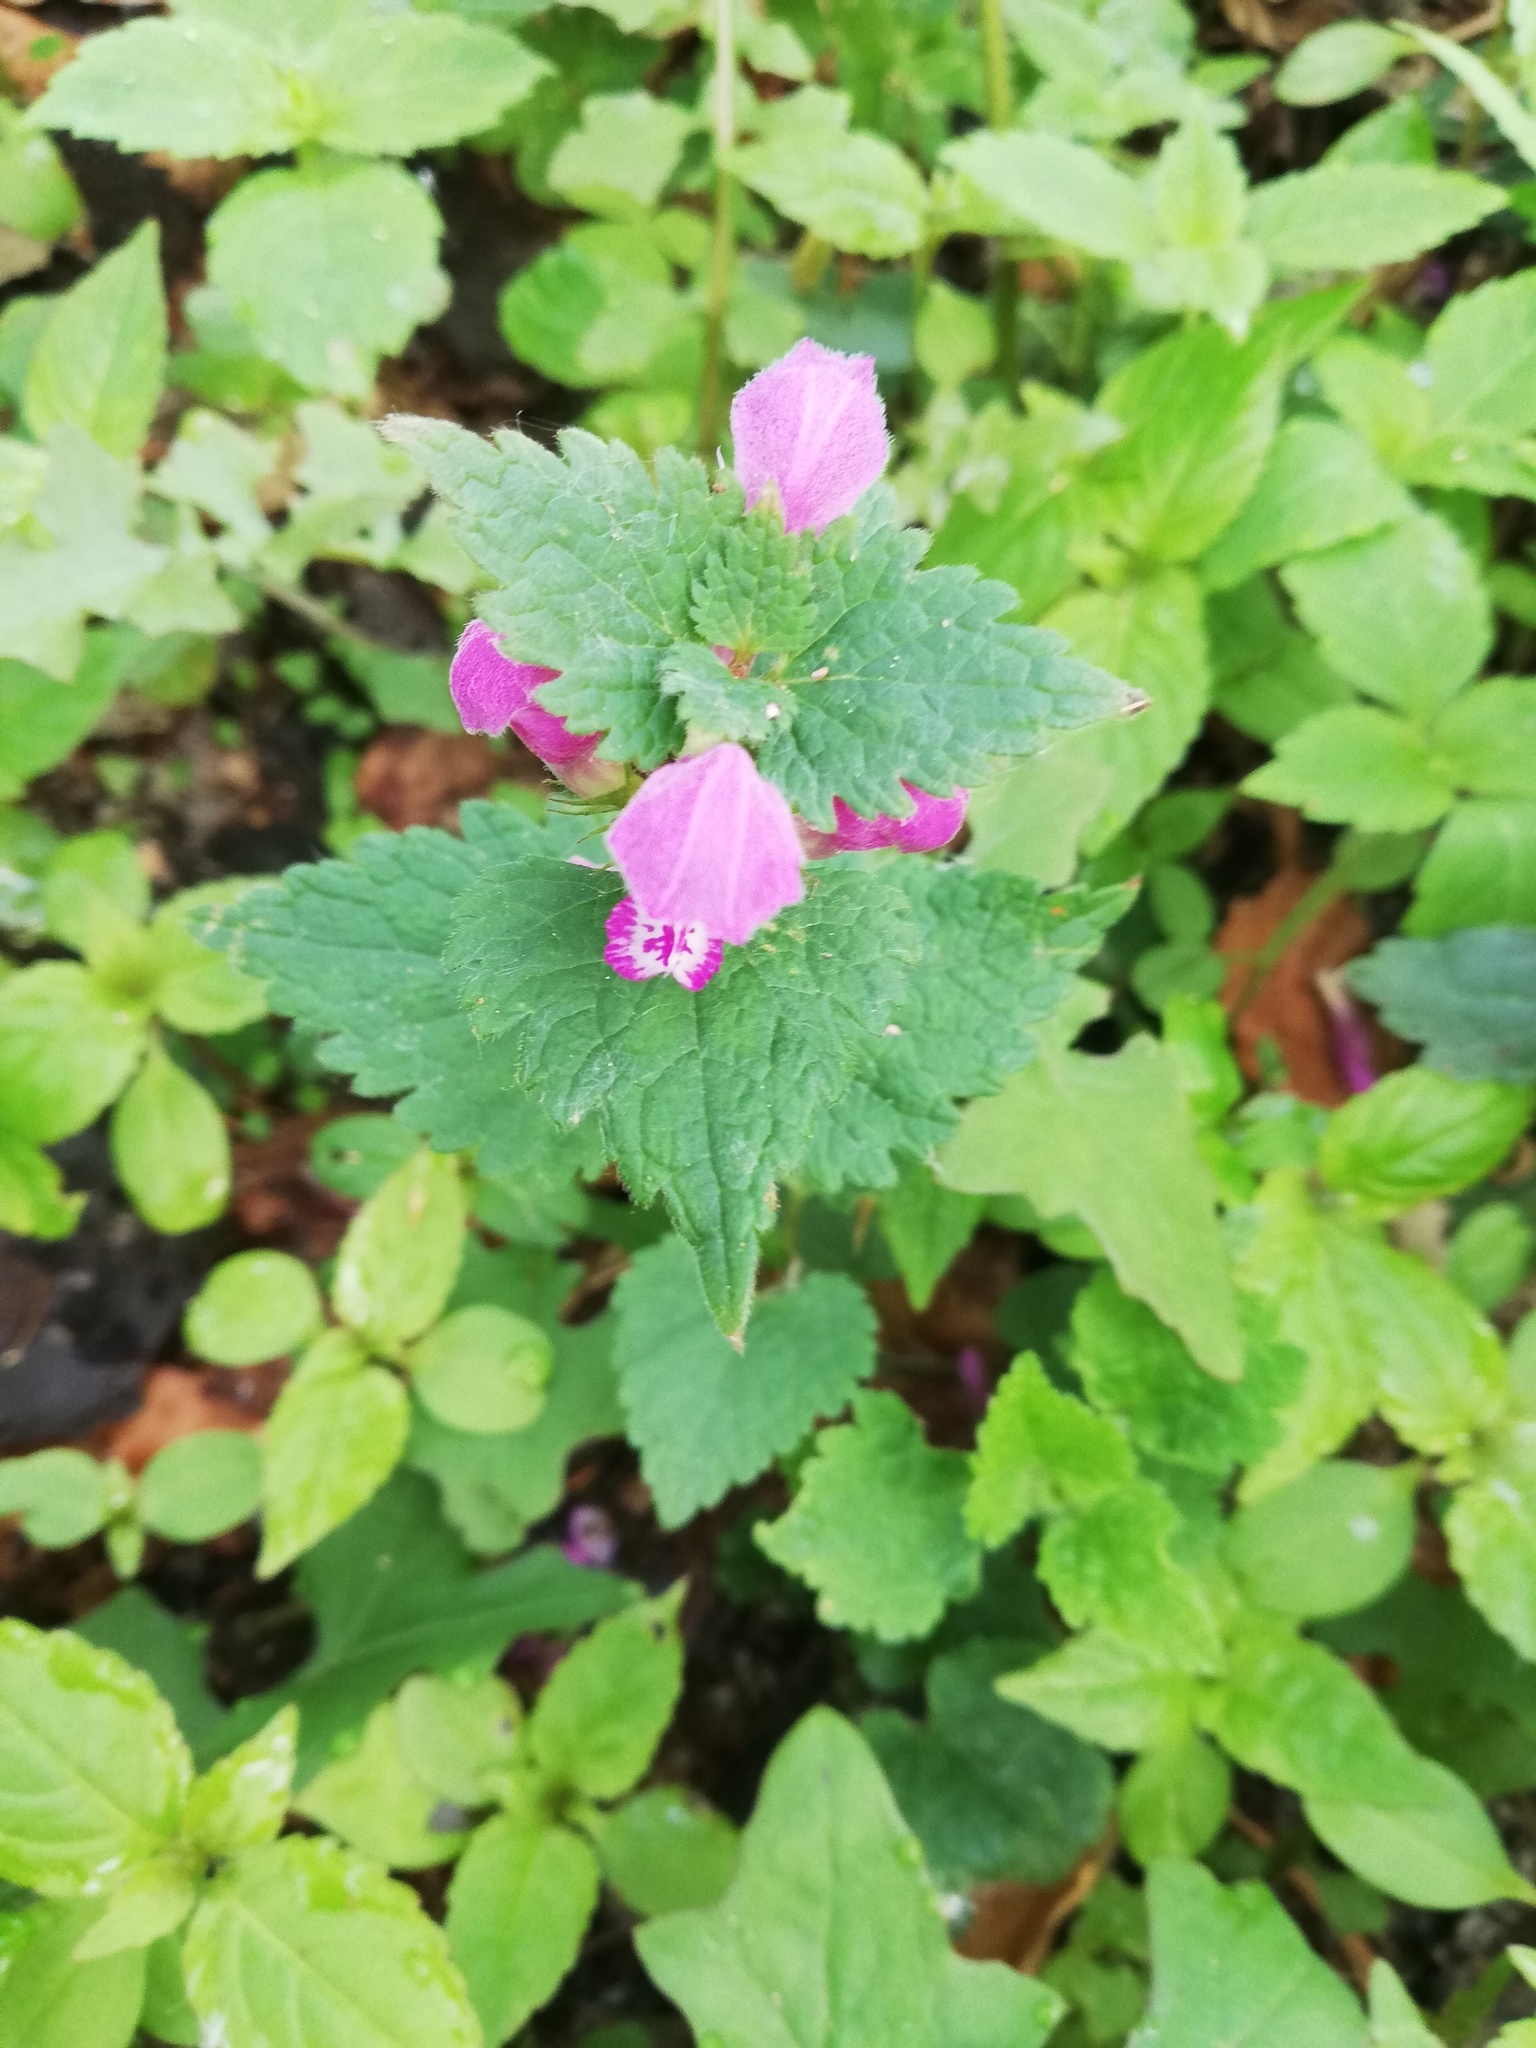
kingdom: Plantae
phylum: Tracheophyta
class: Magnoliopsida
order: Lamiales
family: Lamiaceae
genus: Lamium
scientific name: Lamium maculatum
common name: Spotted dead-nettle
